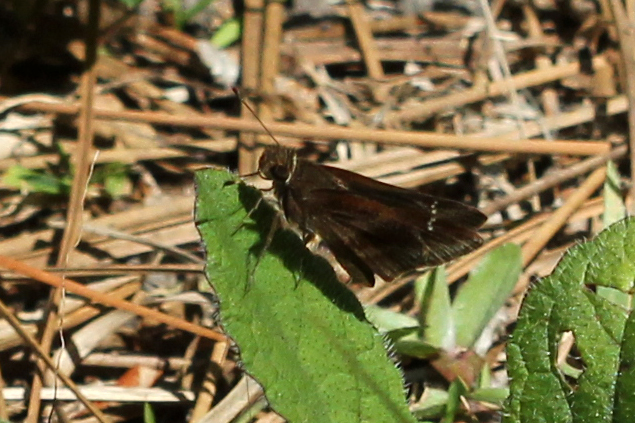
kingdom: Animalia
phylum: Arthropoda
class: Insecta
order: Lepidoptera
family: Hesperiidae
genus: Lerema
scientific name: Lerema accius
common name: Clouded skipper
